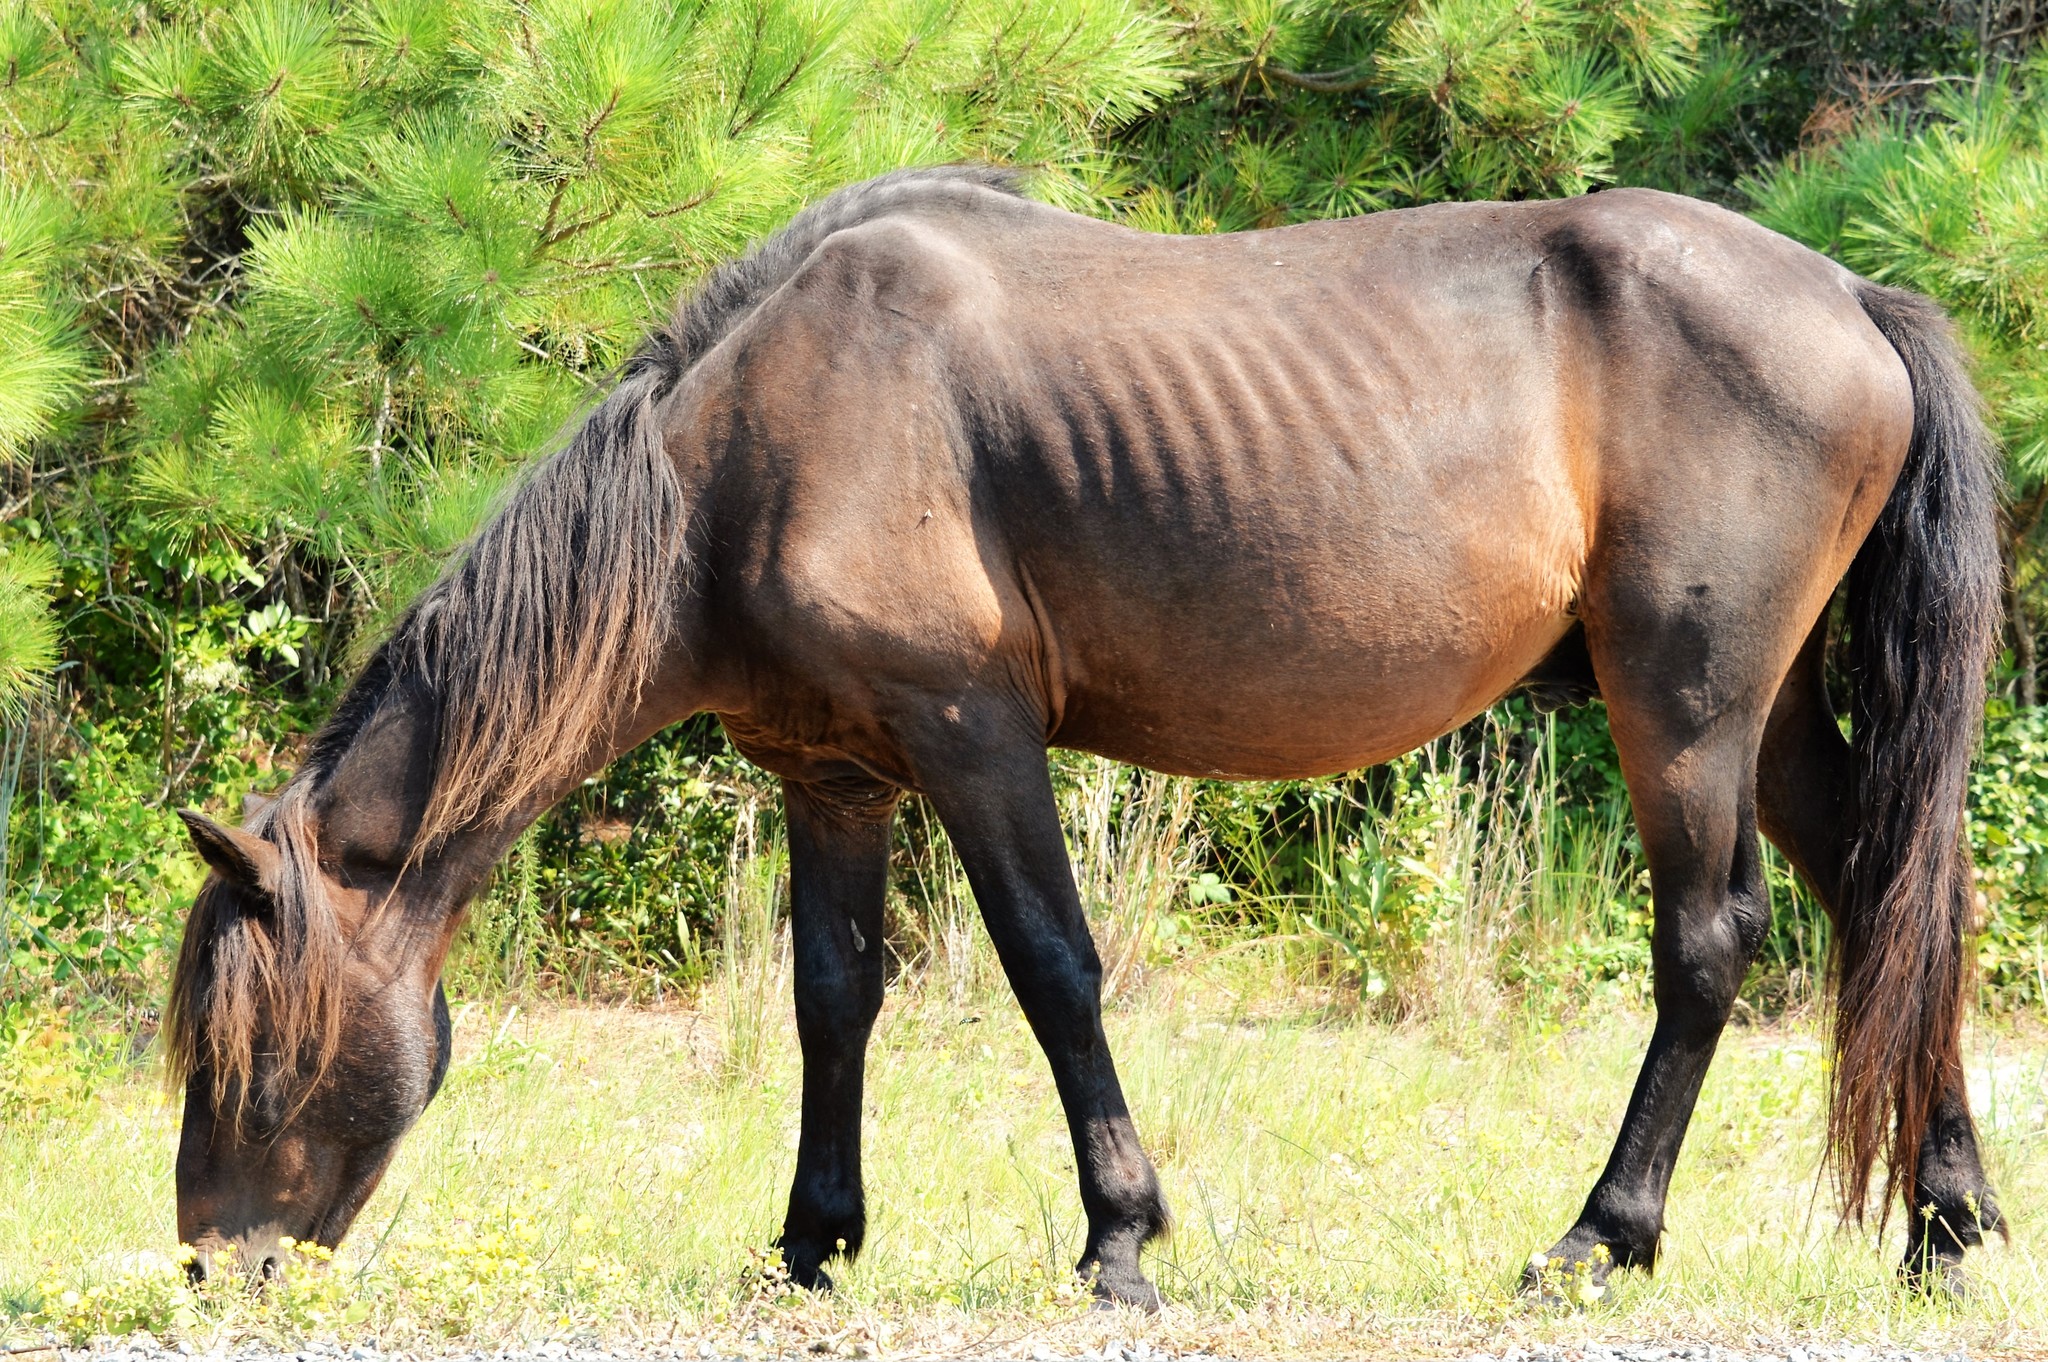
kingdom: Animalia
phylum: Chordata
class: Mammalia
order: Perissodactyla
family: Equidae
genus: Equus
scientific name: Equus caballus
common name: Horse
